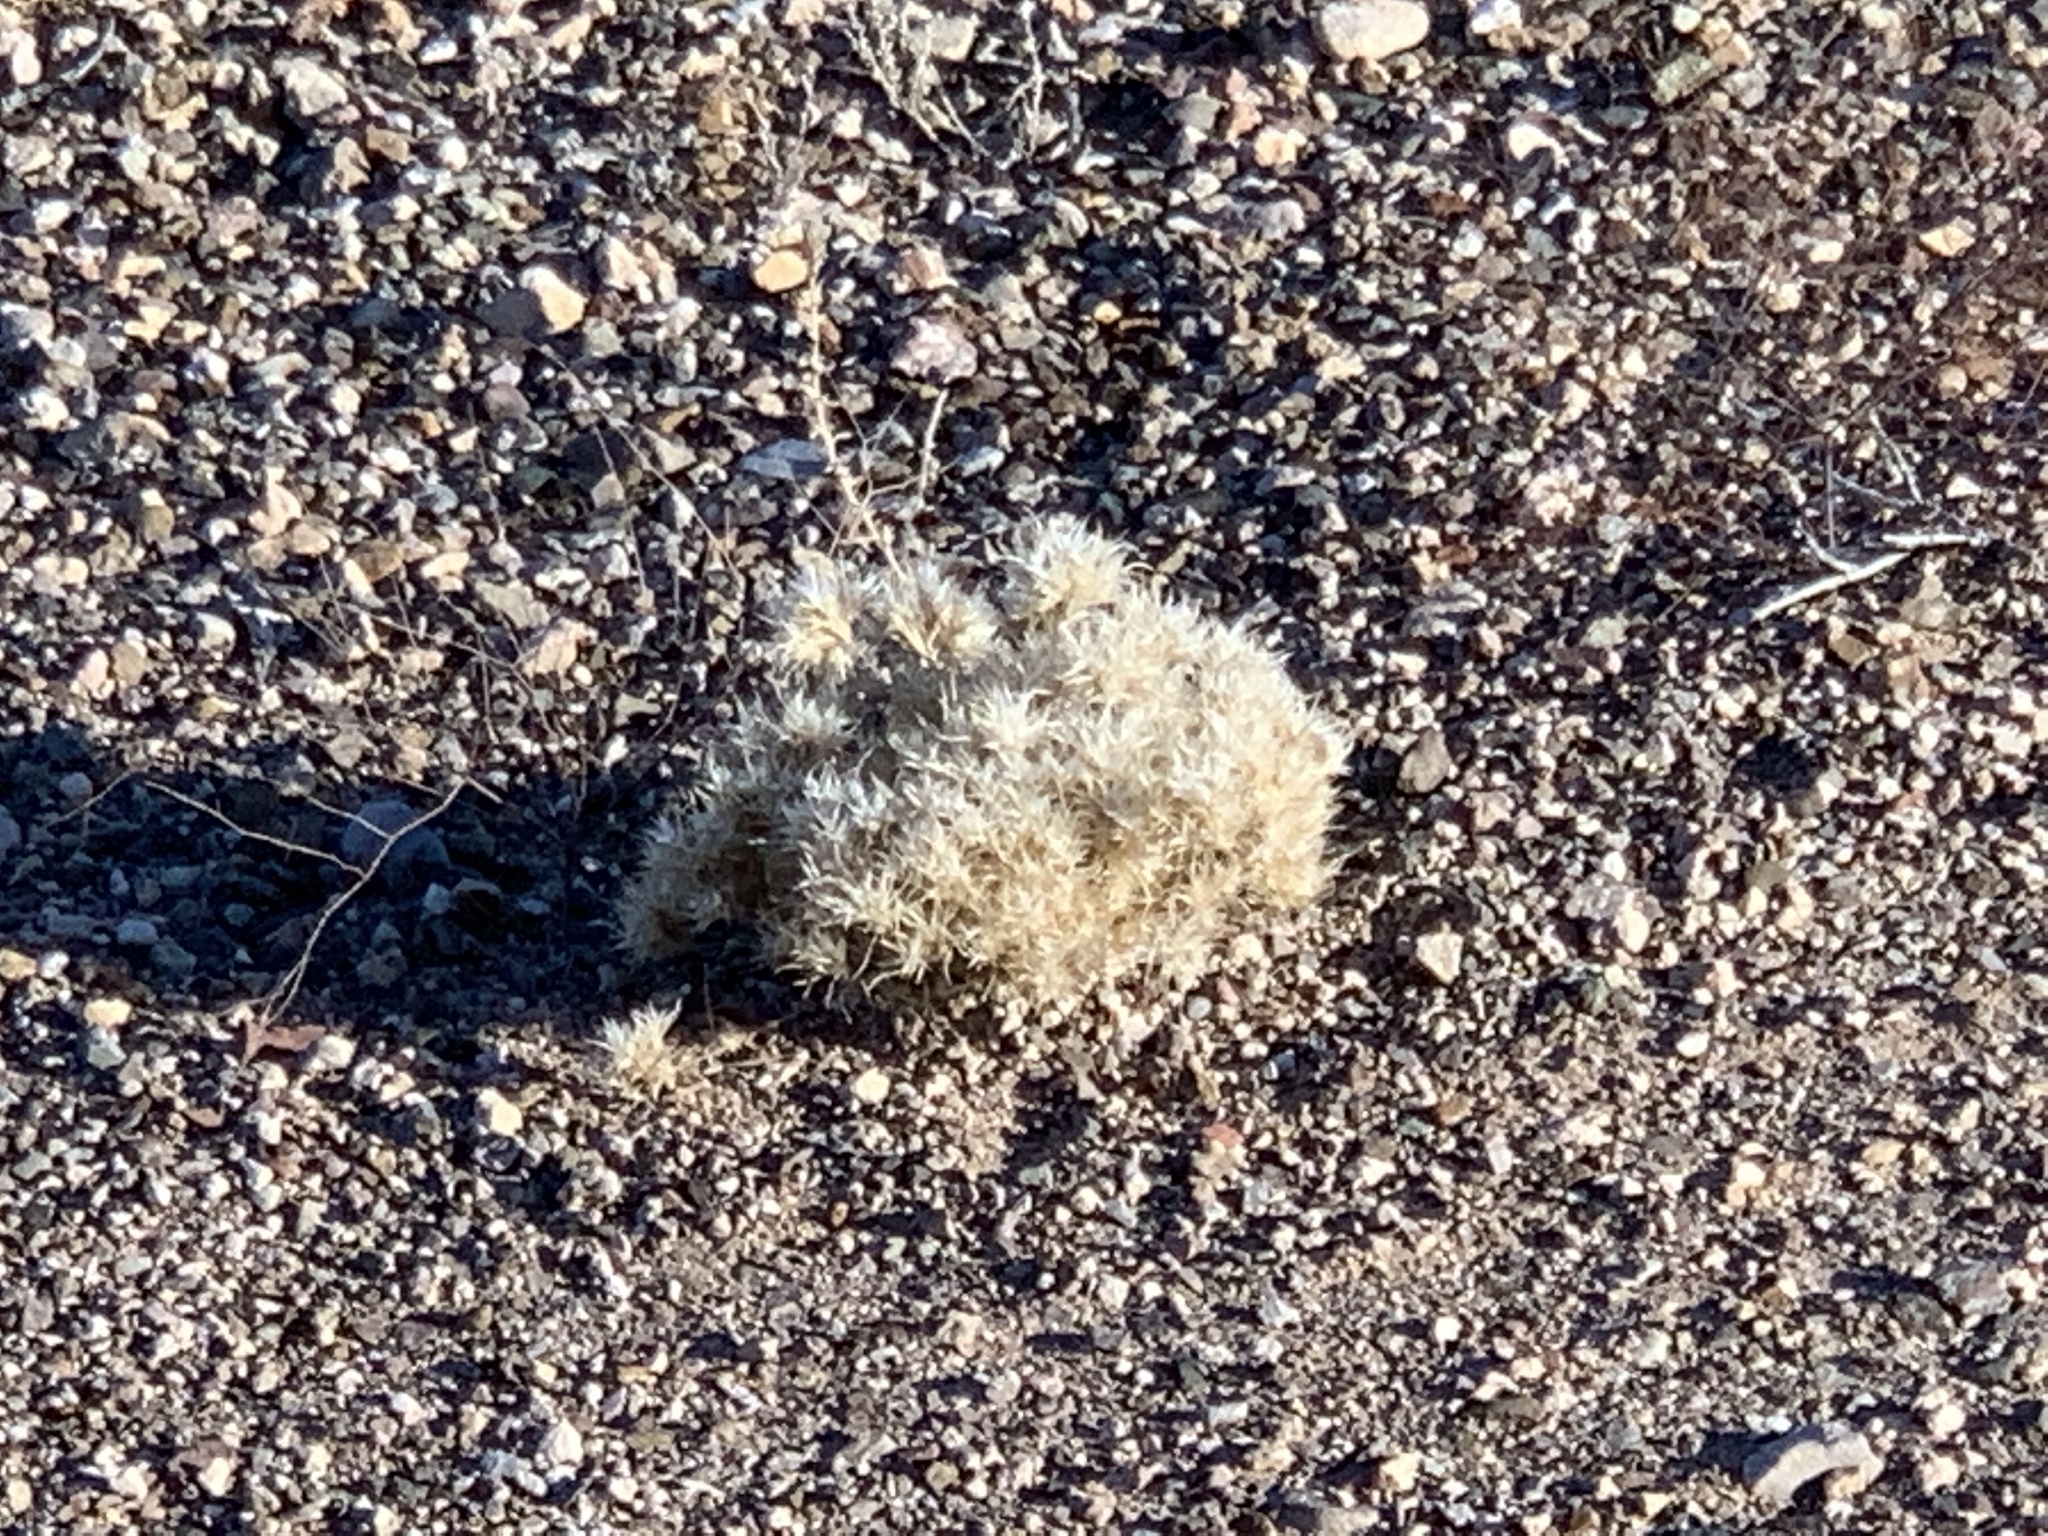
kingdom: Plantae
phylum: Tracheophyta
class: Liliopsida
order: Poales
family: Poaceae
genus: Dasyochloa
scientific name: Dasyochloa pulchella
